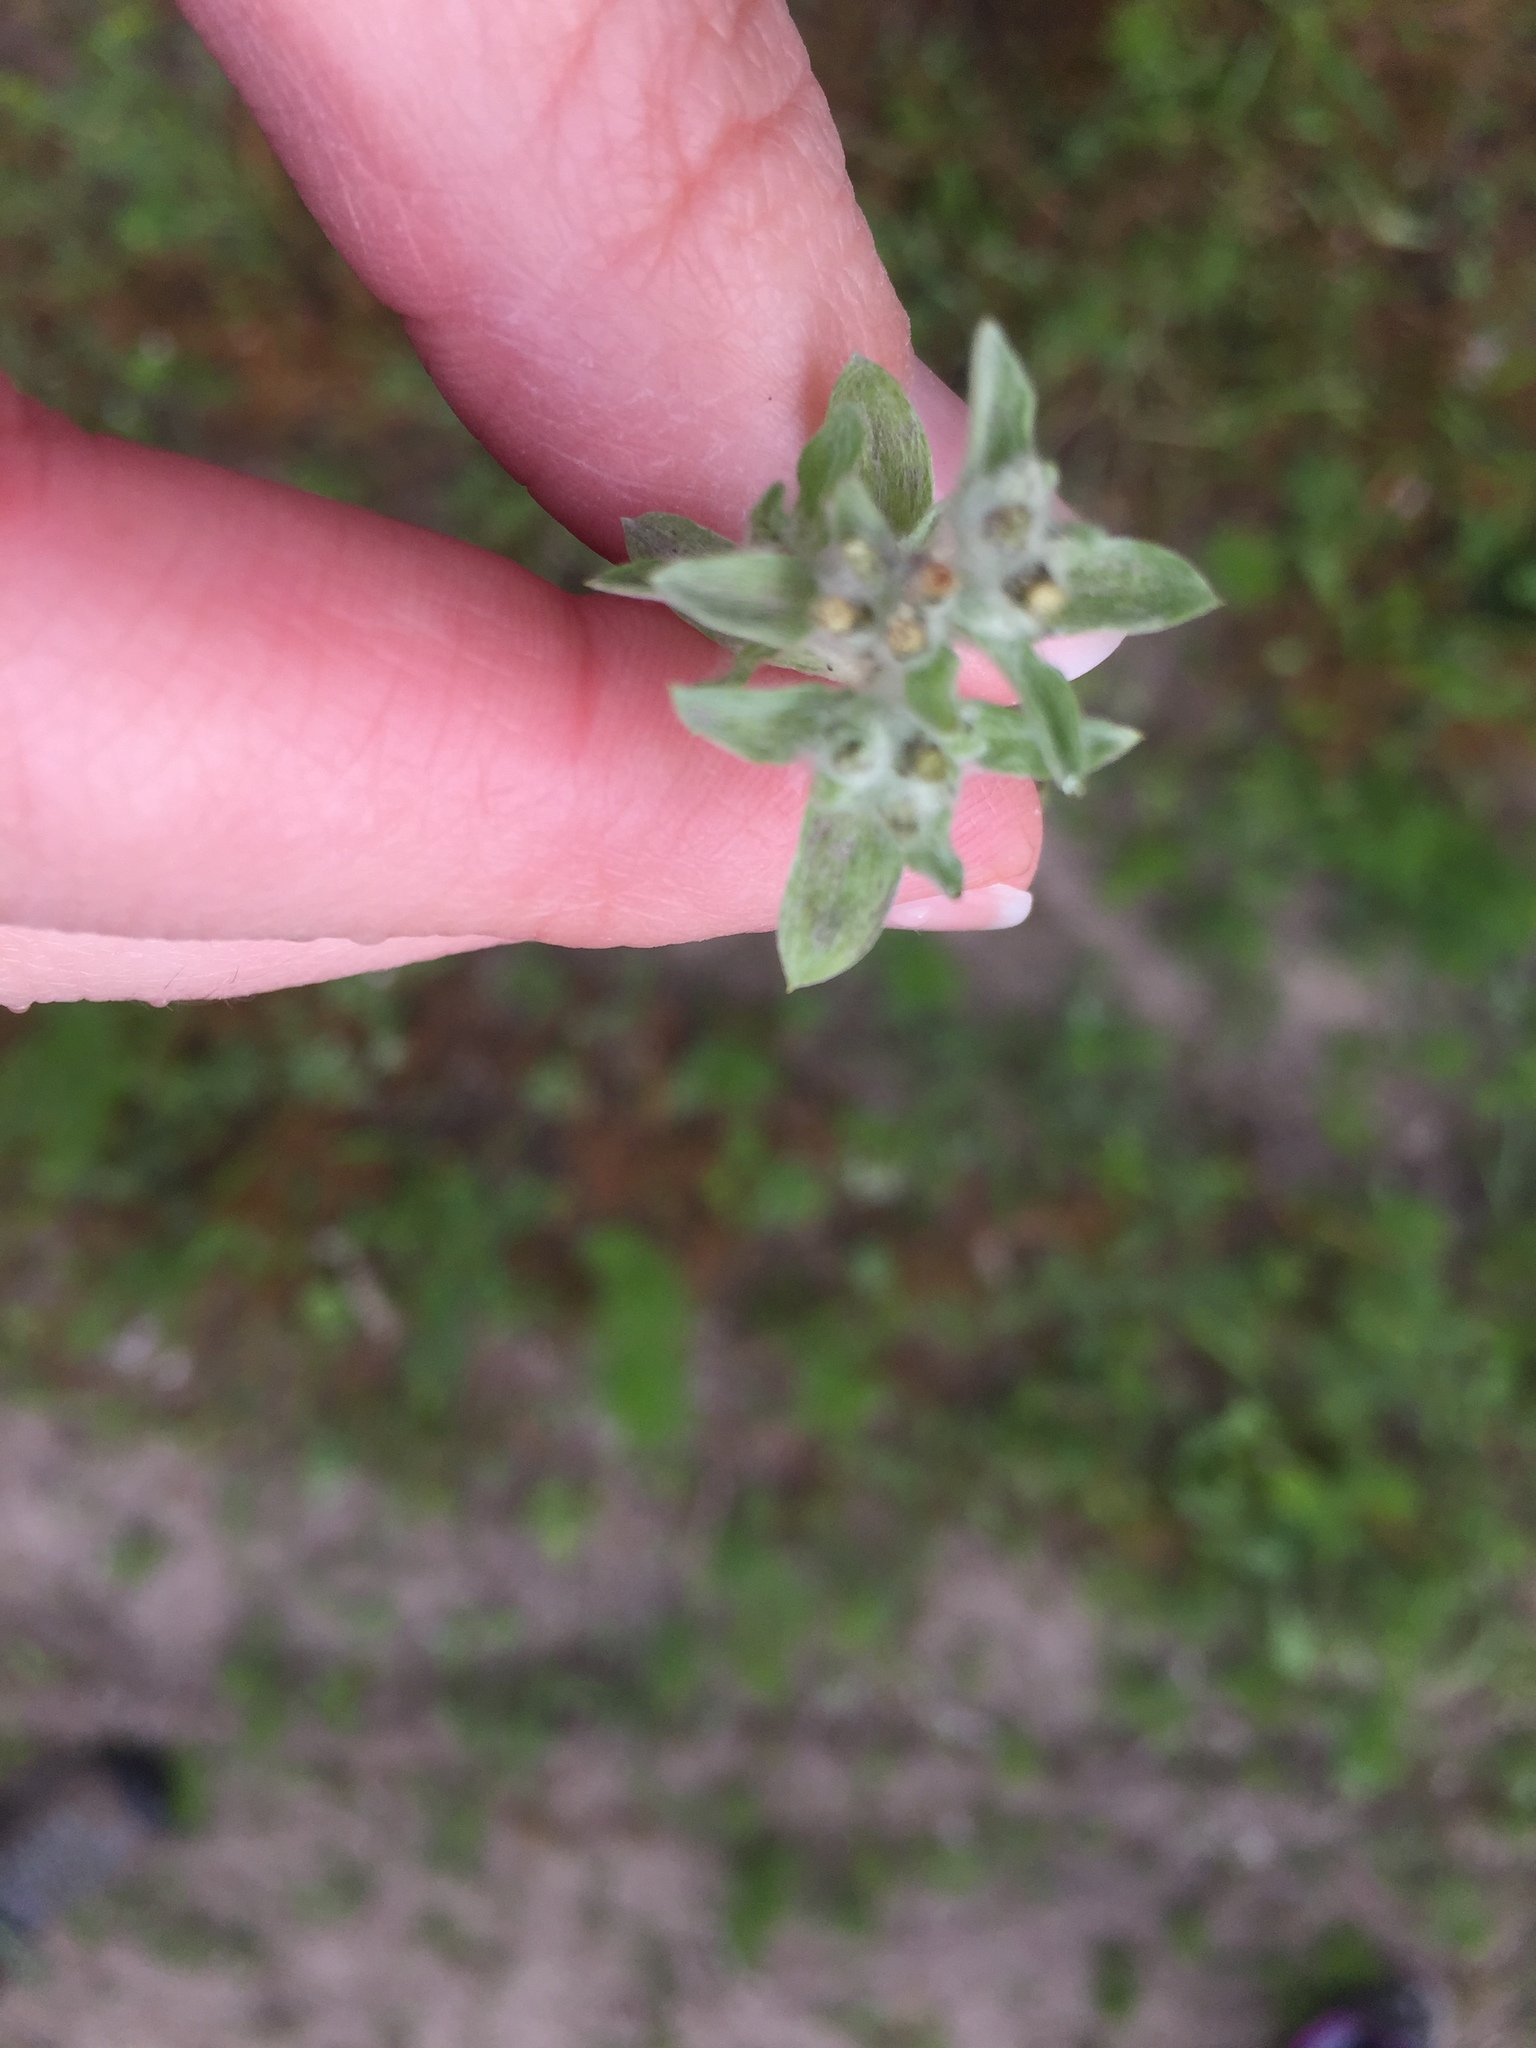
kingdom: Plantae
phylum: Tracheophyta
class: Magnoliopsida
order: Asterales
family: Asteraceae
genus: Gnaphalium
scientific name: Gnaphalium palustre
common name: Western marsh cudweed
